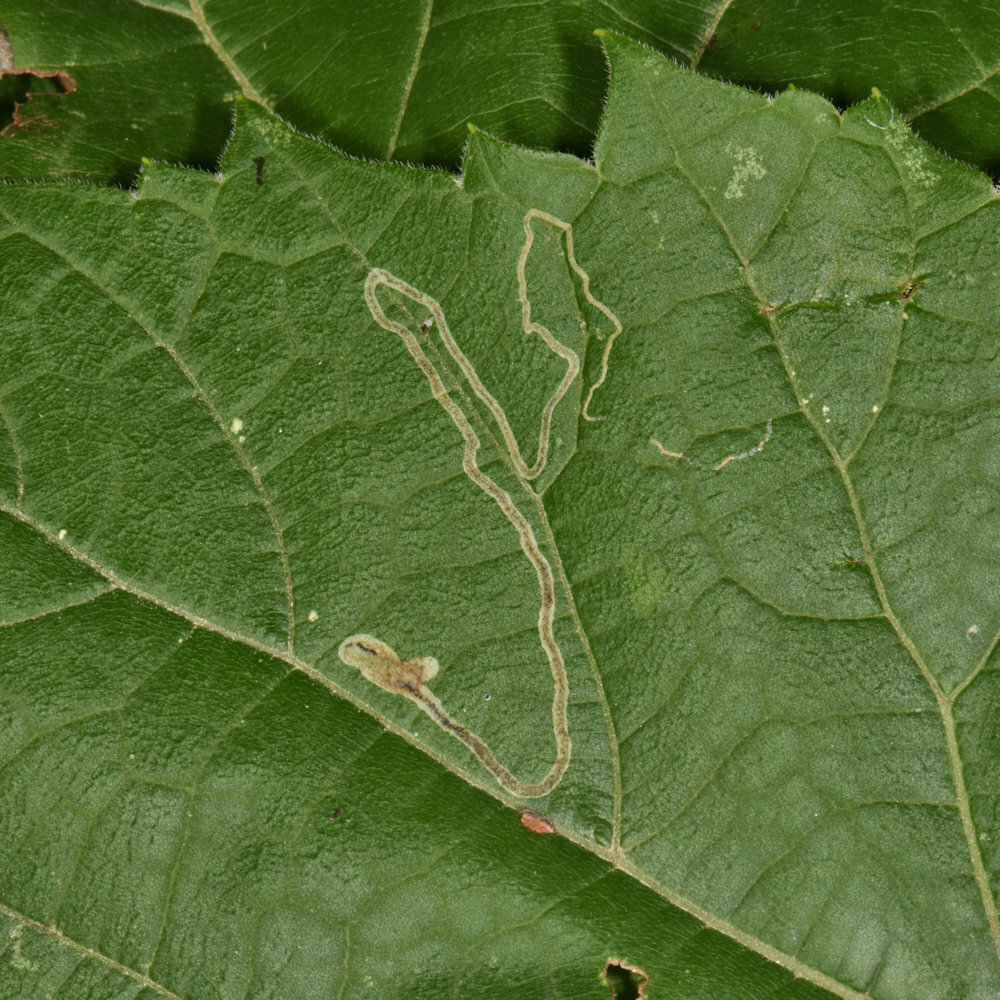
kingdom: Animalia
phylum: Arthropoda
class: Insecta
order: Lepidoptera
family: Gracillariidae
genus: Phyllocnistis
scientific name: Phyllocnistis vitifoliella
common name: Grape leaf-miner moth
